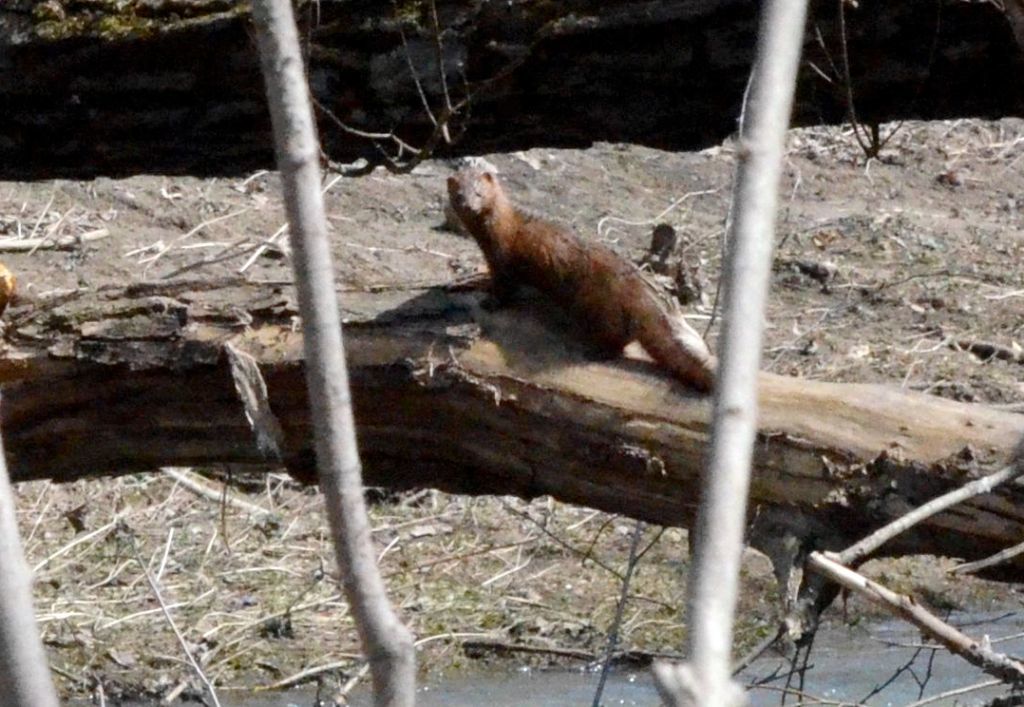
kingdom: Animalia
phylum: Chordata
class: Mammalia
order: Carnivora
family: Mustelidae
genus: Mustela
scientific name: Mustela
